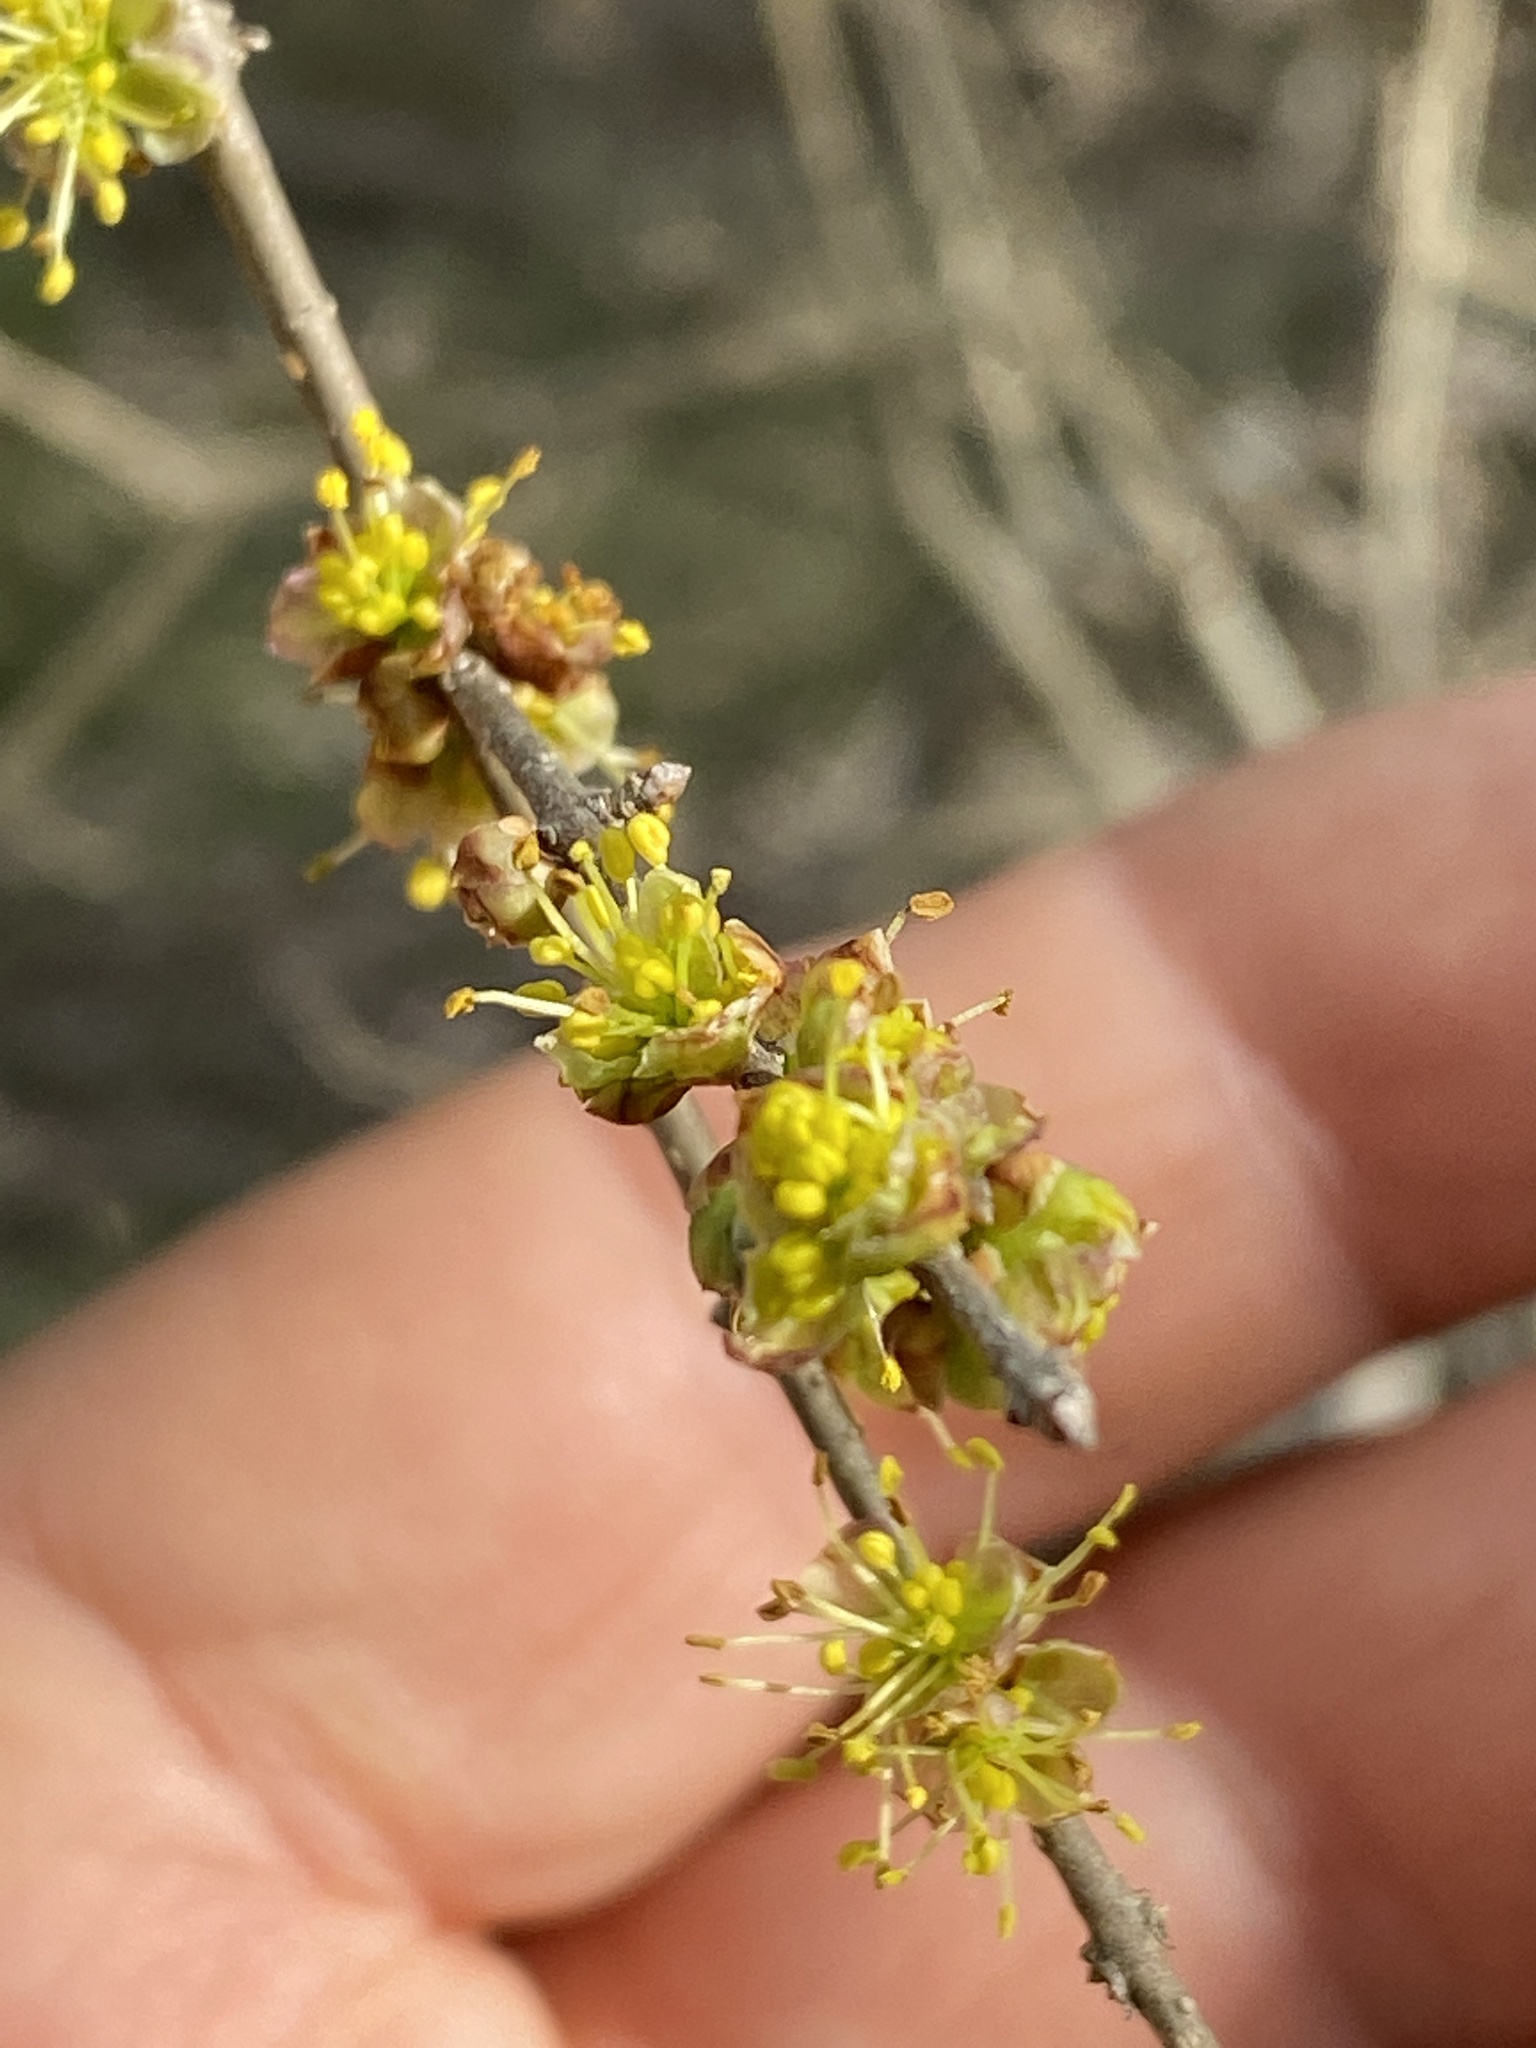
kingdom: Plantae
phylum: Tracheophyta
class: Magnoliopsida
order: Lamiales
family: Oleaceae
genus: Forestiera
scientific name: Forestiera pubescens
